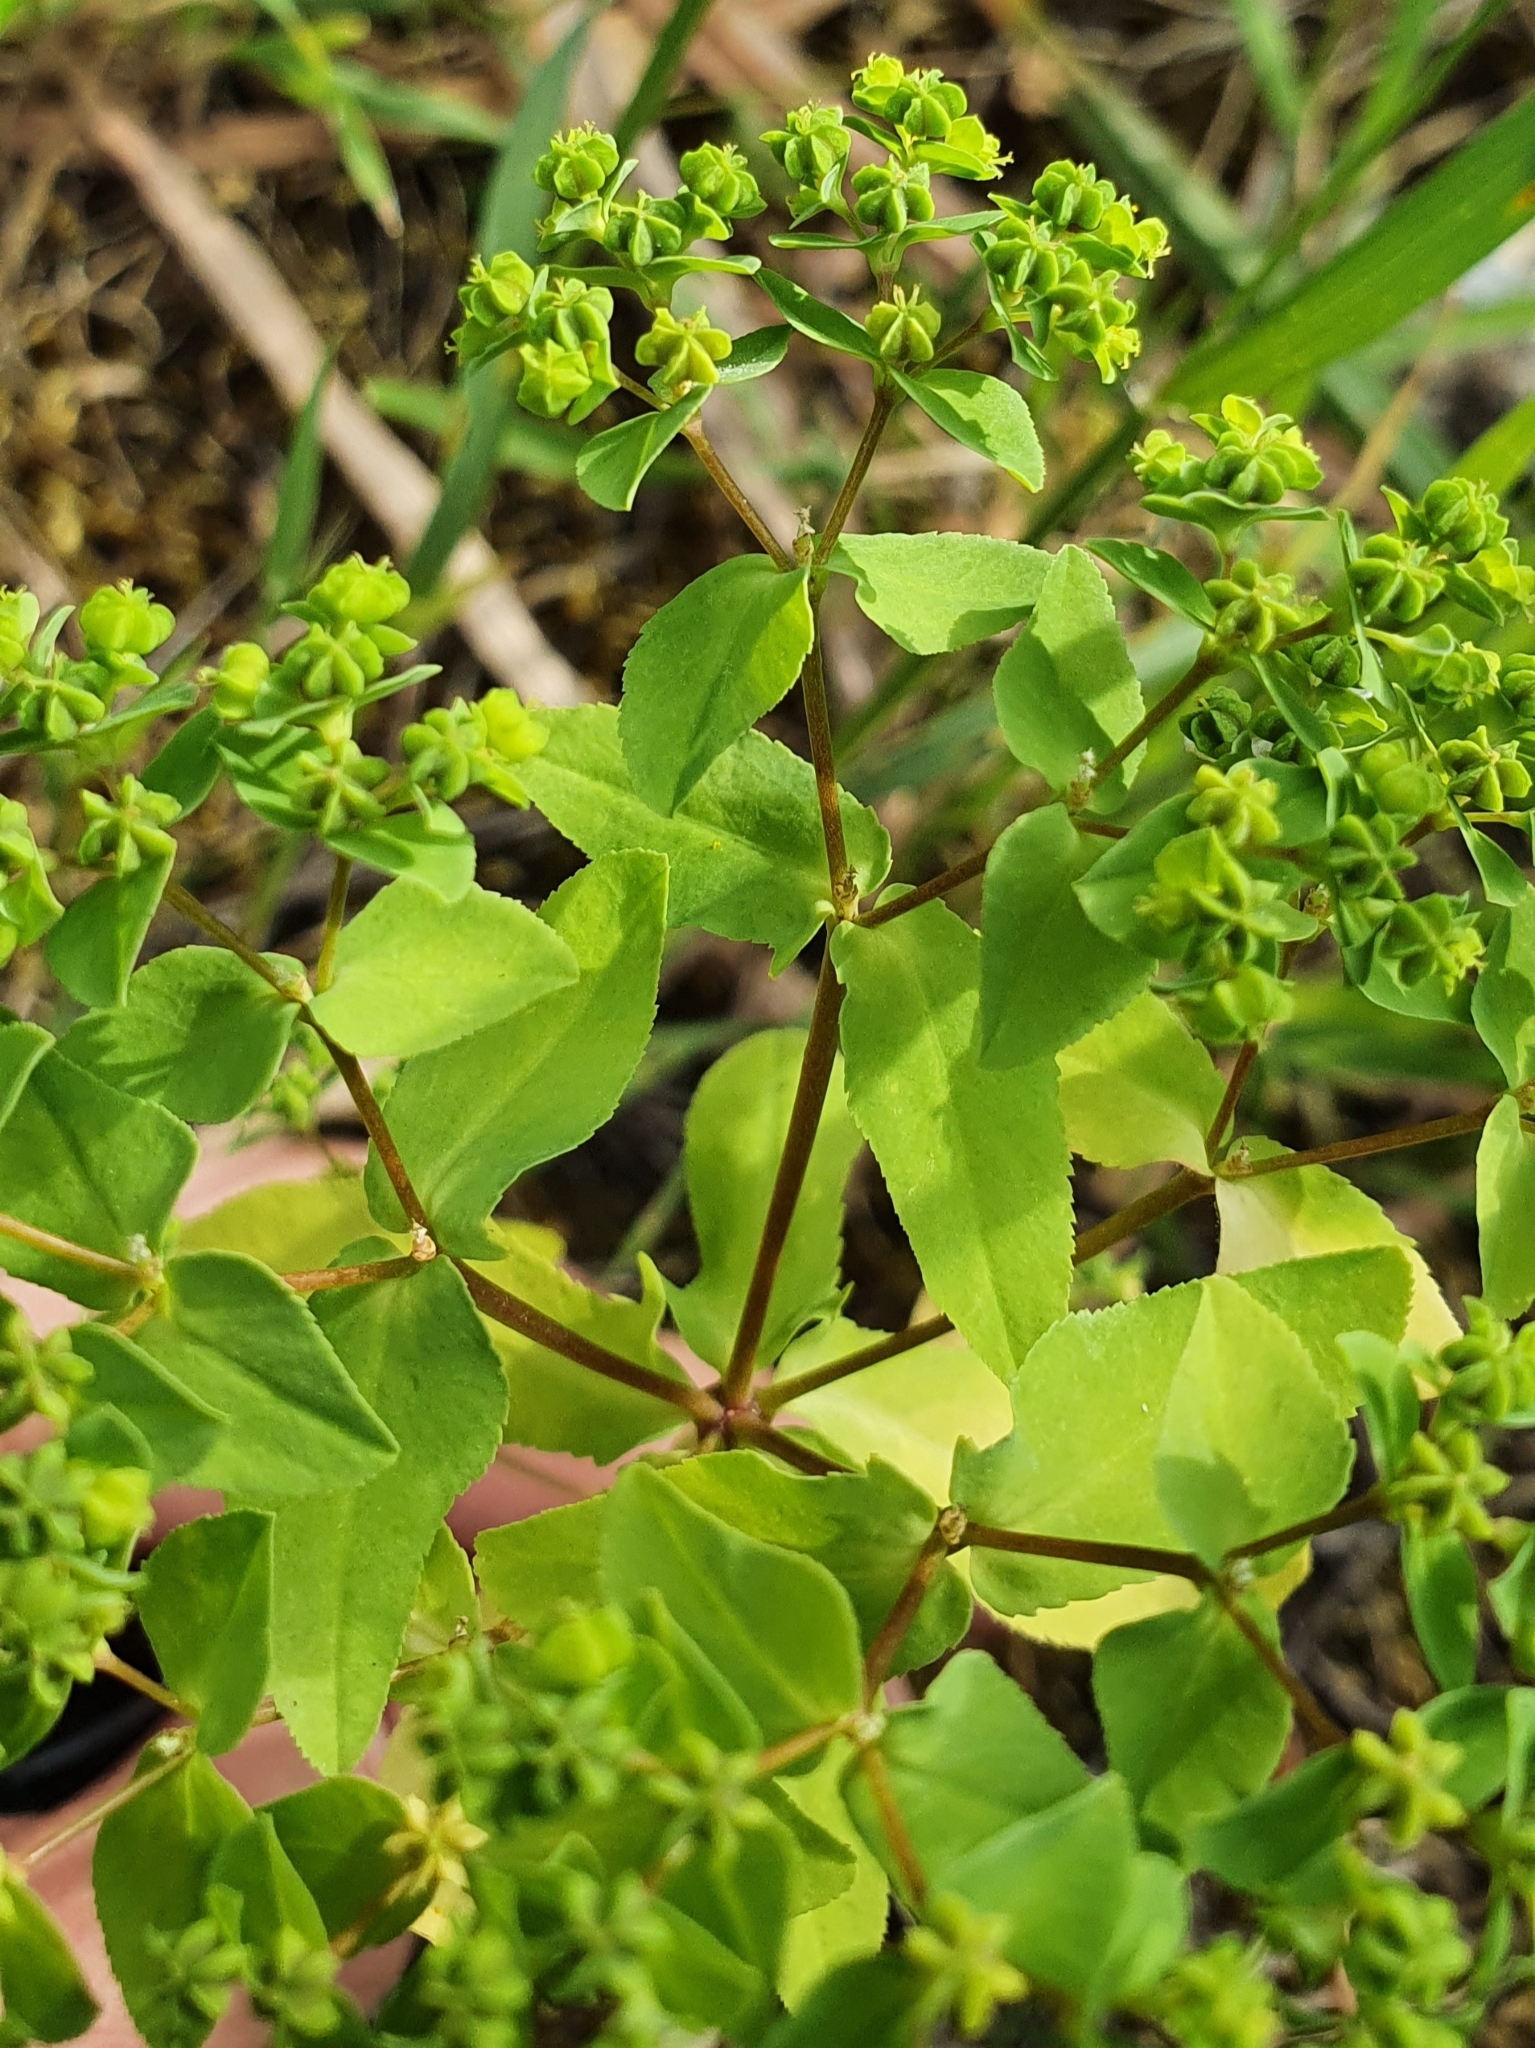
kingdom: Plantae
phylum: Tracheophyta
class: Magnoliopsida
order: Malpighiales
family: Euphorbiaceae
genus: Euphorbia
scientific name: Euphorbia pterococca
